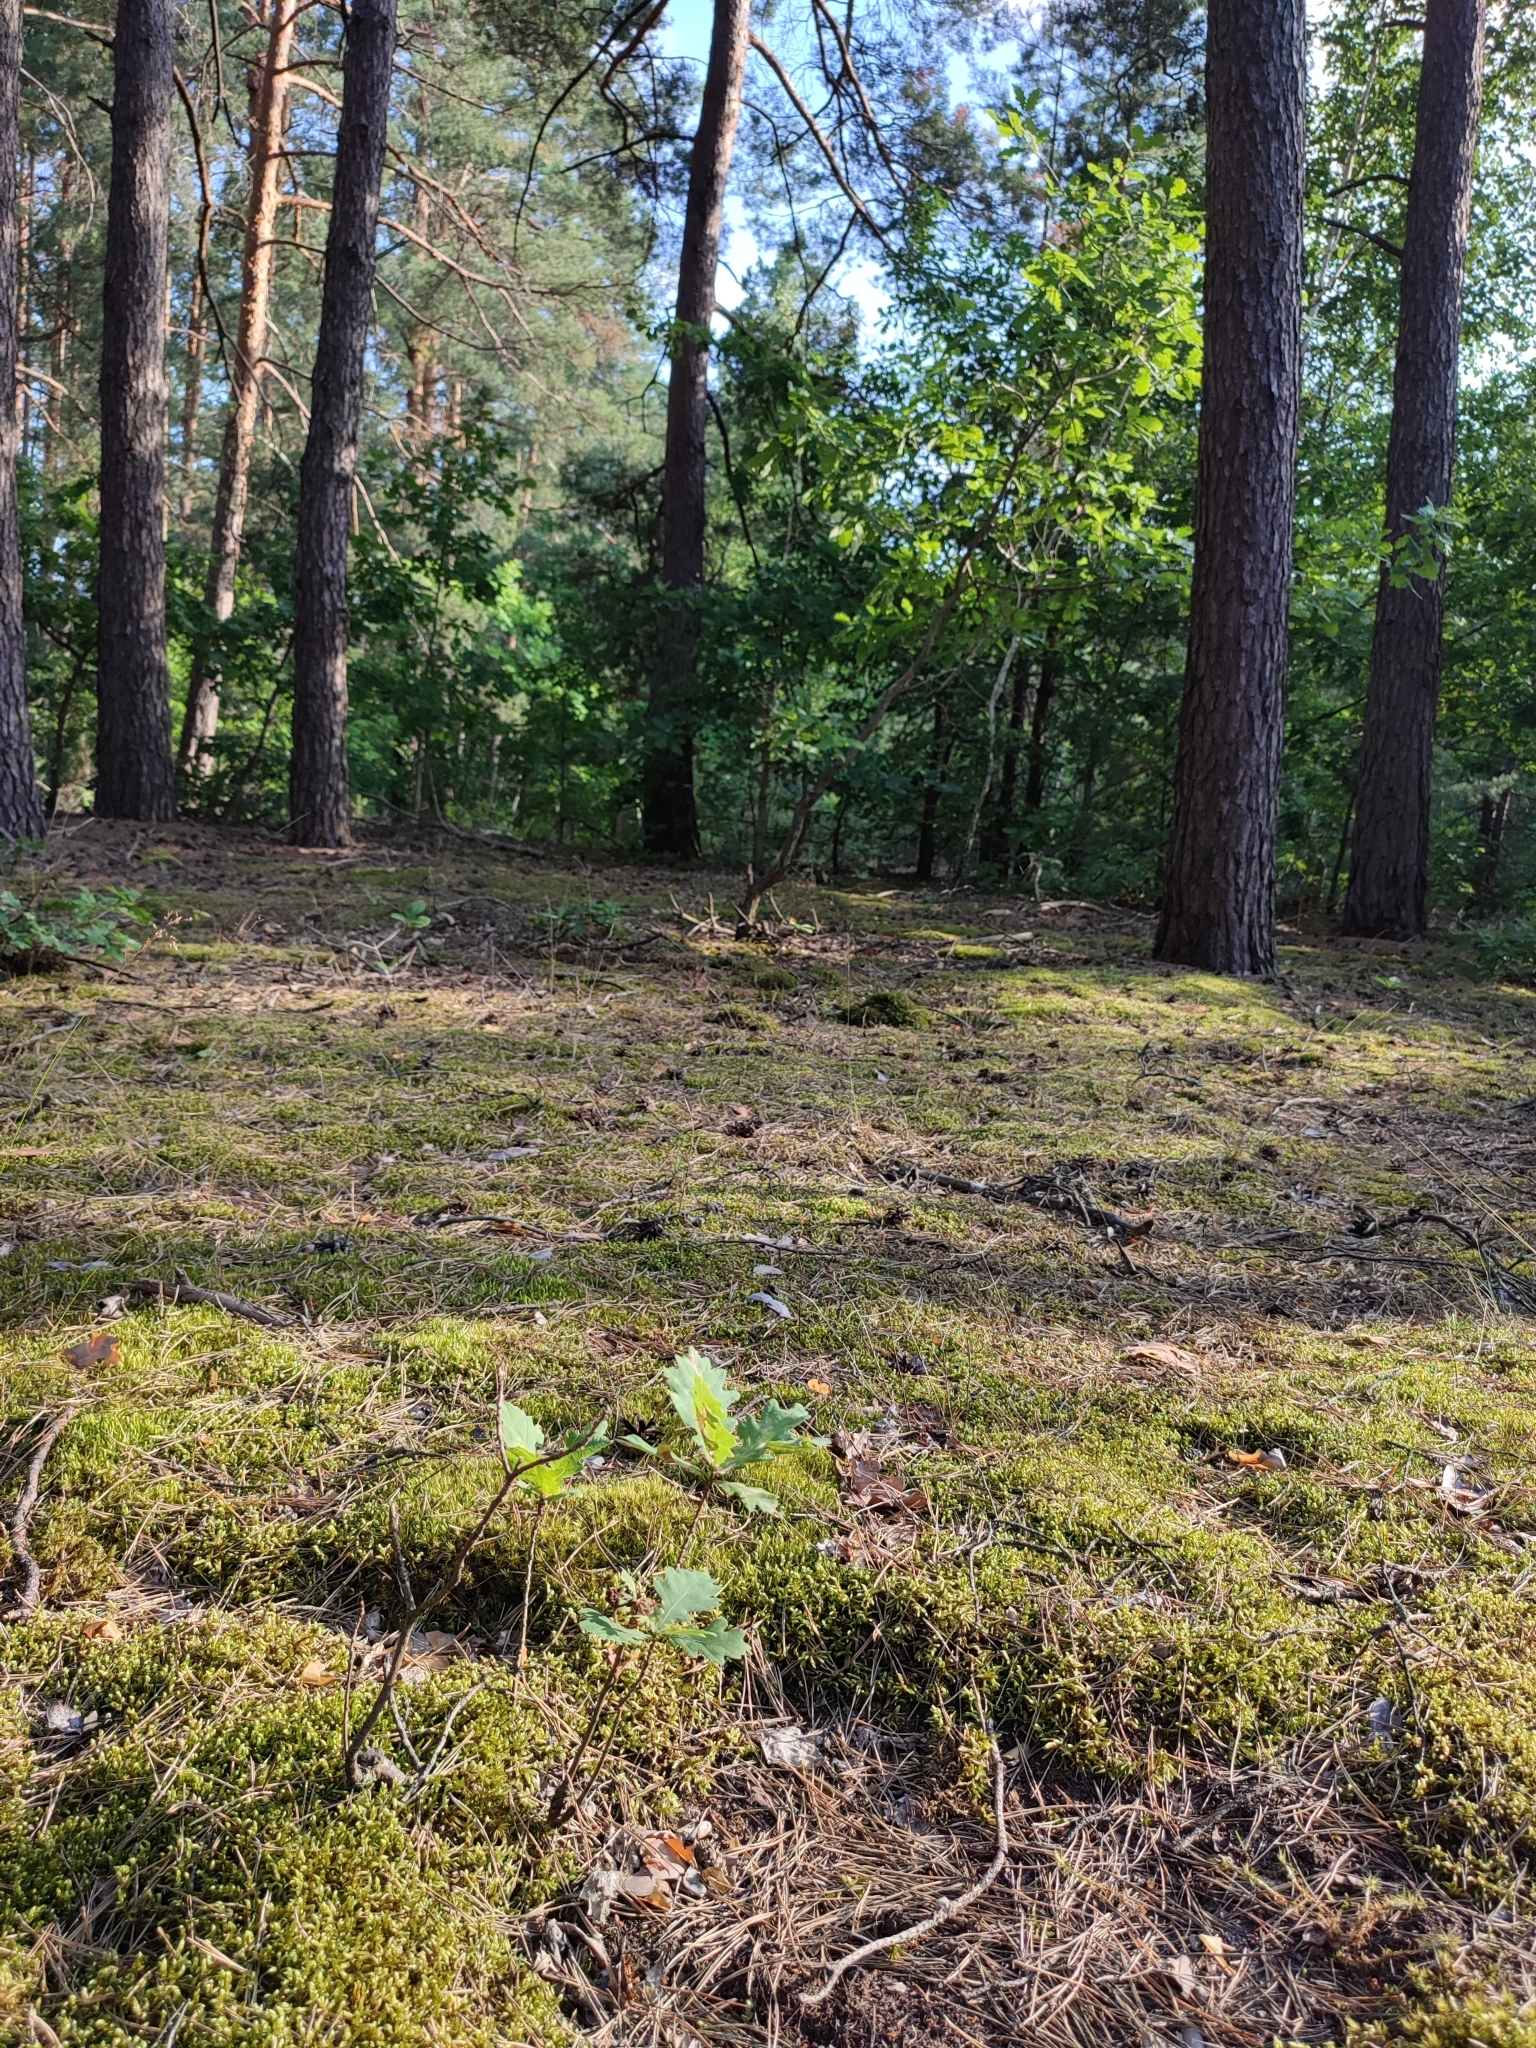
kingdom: Plantae
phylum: Tracheophyta
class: Magnoliopsida
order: Fagales
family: Fagaceae
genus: Quercus
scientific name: Quercus robur
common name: Pedunculate oak
